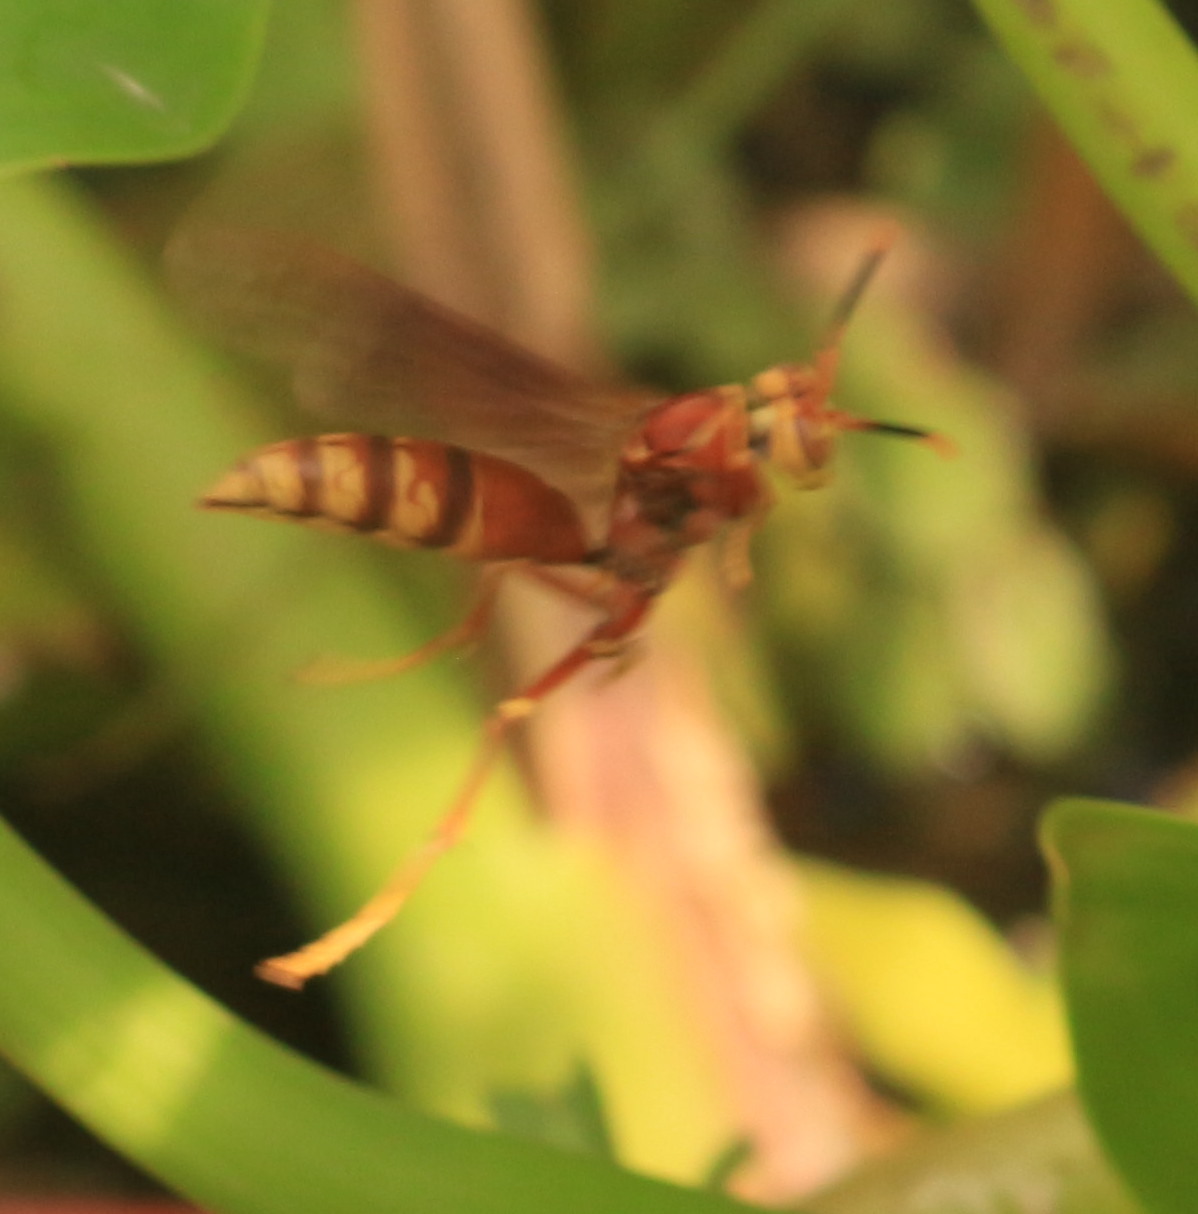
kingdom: Animalia
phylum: Arthropoda
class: Insecta
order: Hymenoptera
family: Eumenidae
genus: Polistes
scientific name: Polistes cavapyta
